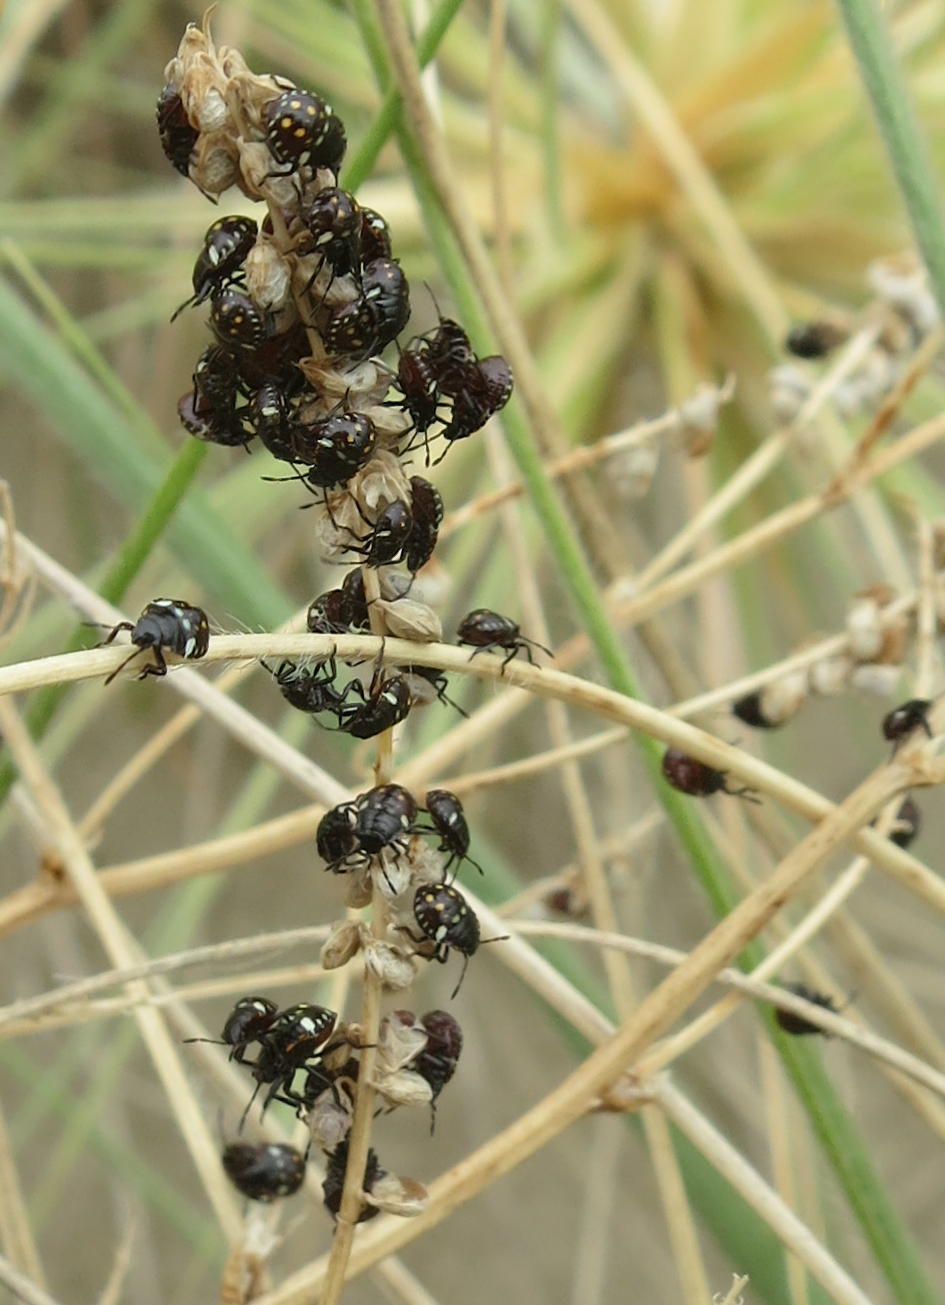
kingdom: Animalia
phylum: Arthropoda
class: Insecta
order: Hemiptera
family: Pentatomidae
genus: Nezara
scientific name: Nezara viridula
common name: Southern green stink bug
